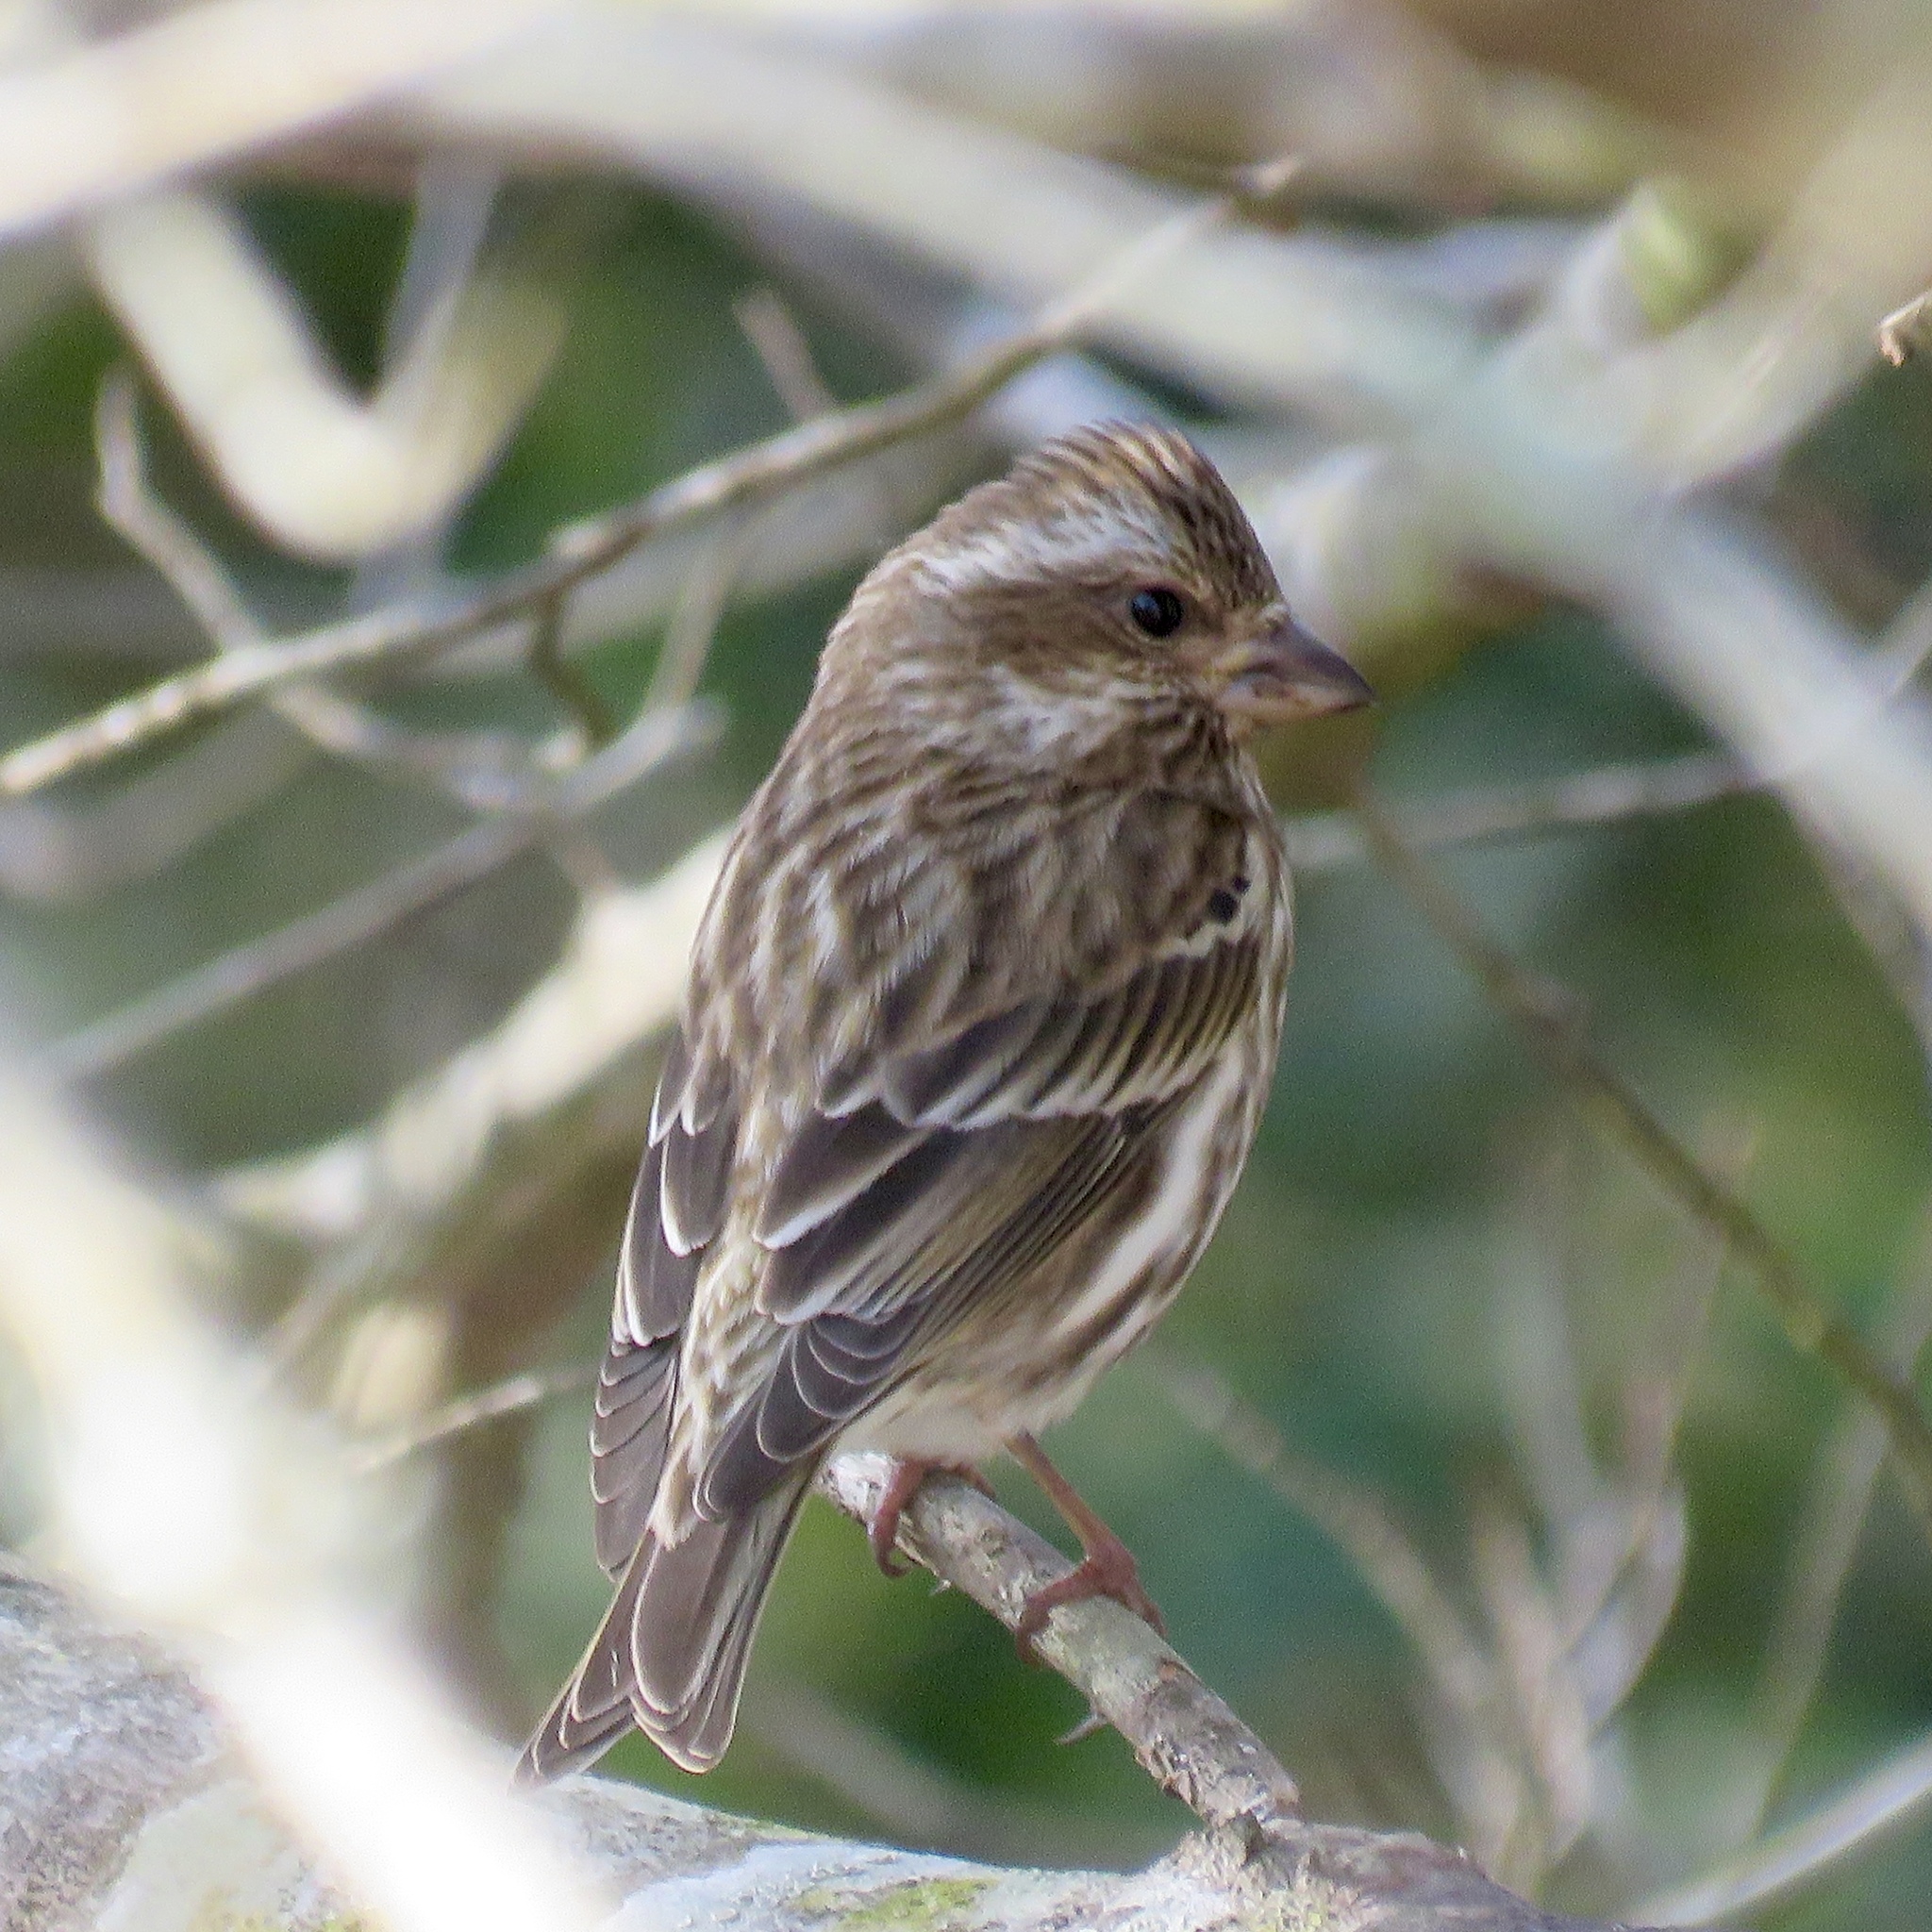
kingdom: Animalia
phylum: Chordata
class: Aves
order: Passeriformes
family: Fringillidae
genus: Haemorhous
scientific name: Haemorhous purpureus
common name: Purple finch
